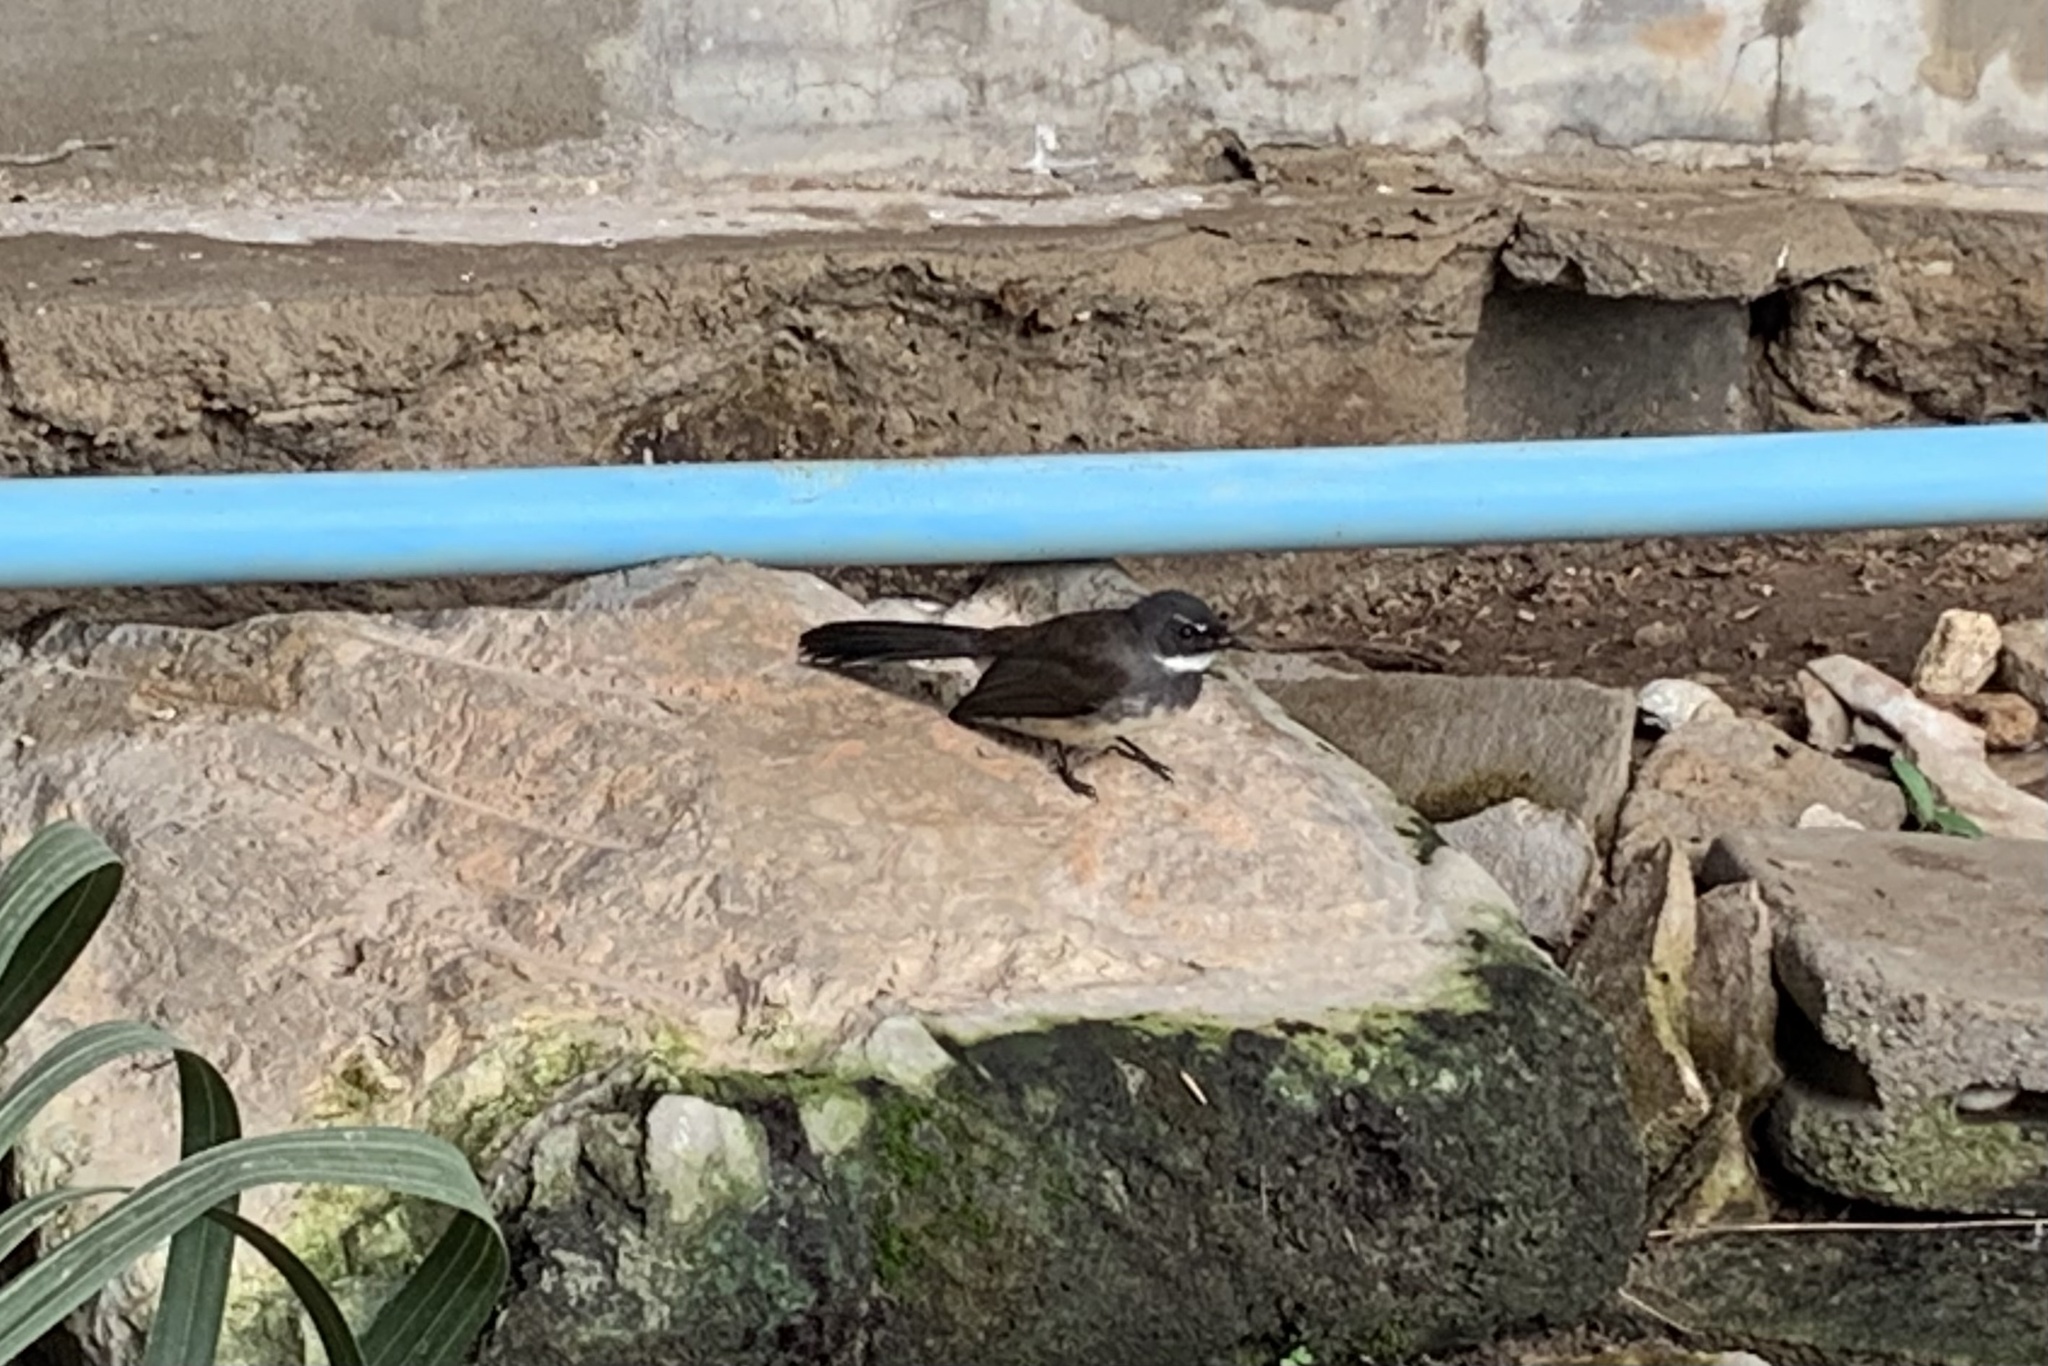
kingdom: Animalia
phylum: Chordata
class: Aves
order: Passeriformes
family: Rhipiduridae
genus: Rhipidura
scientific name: Rhipidura javanica
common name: Pied fantail
